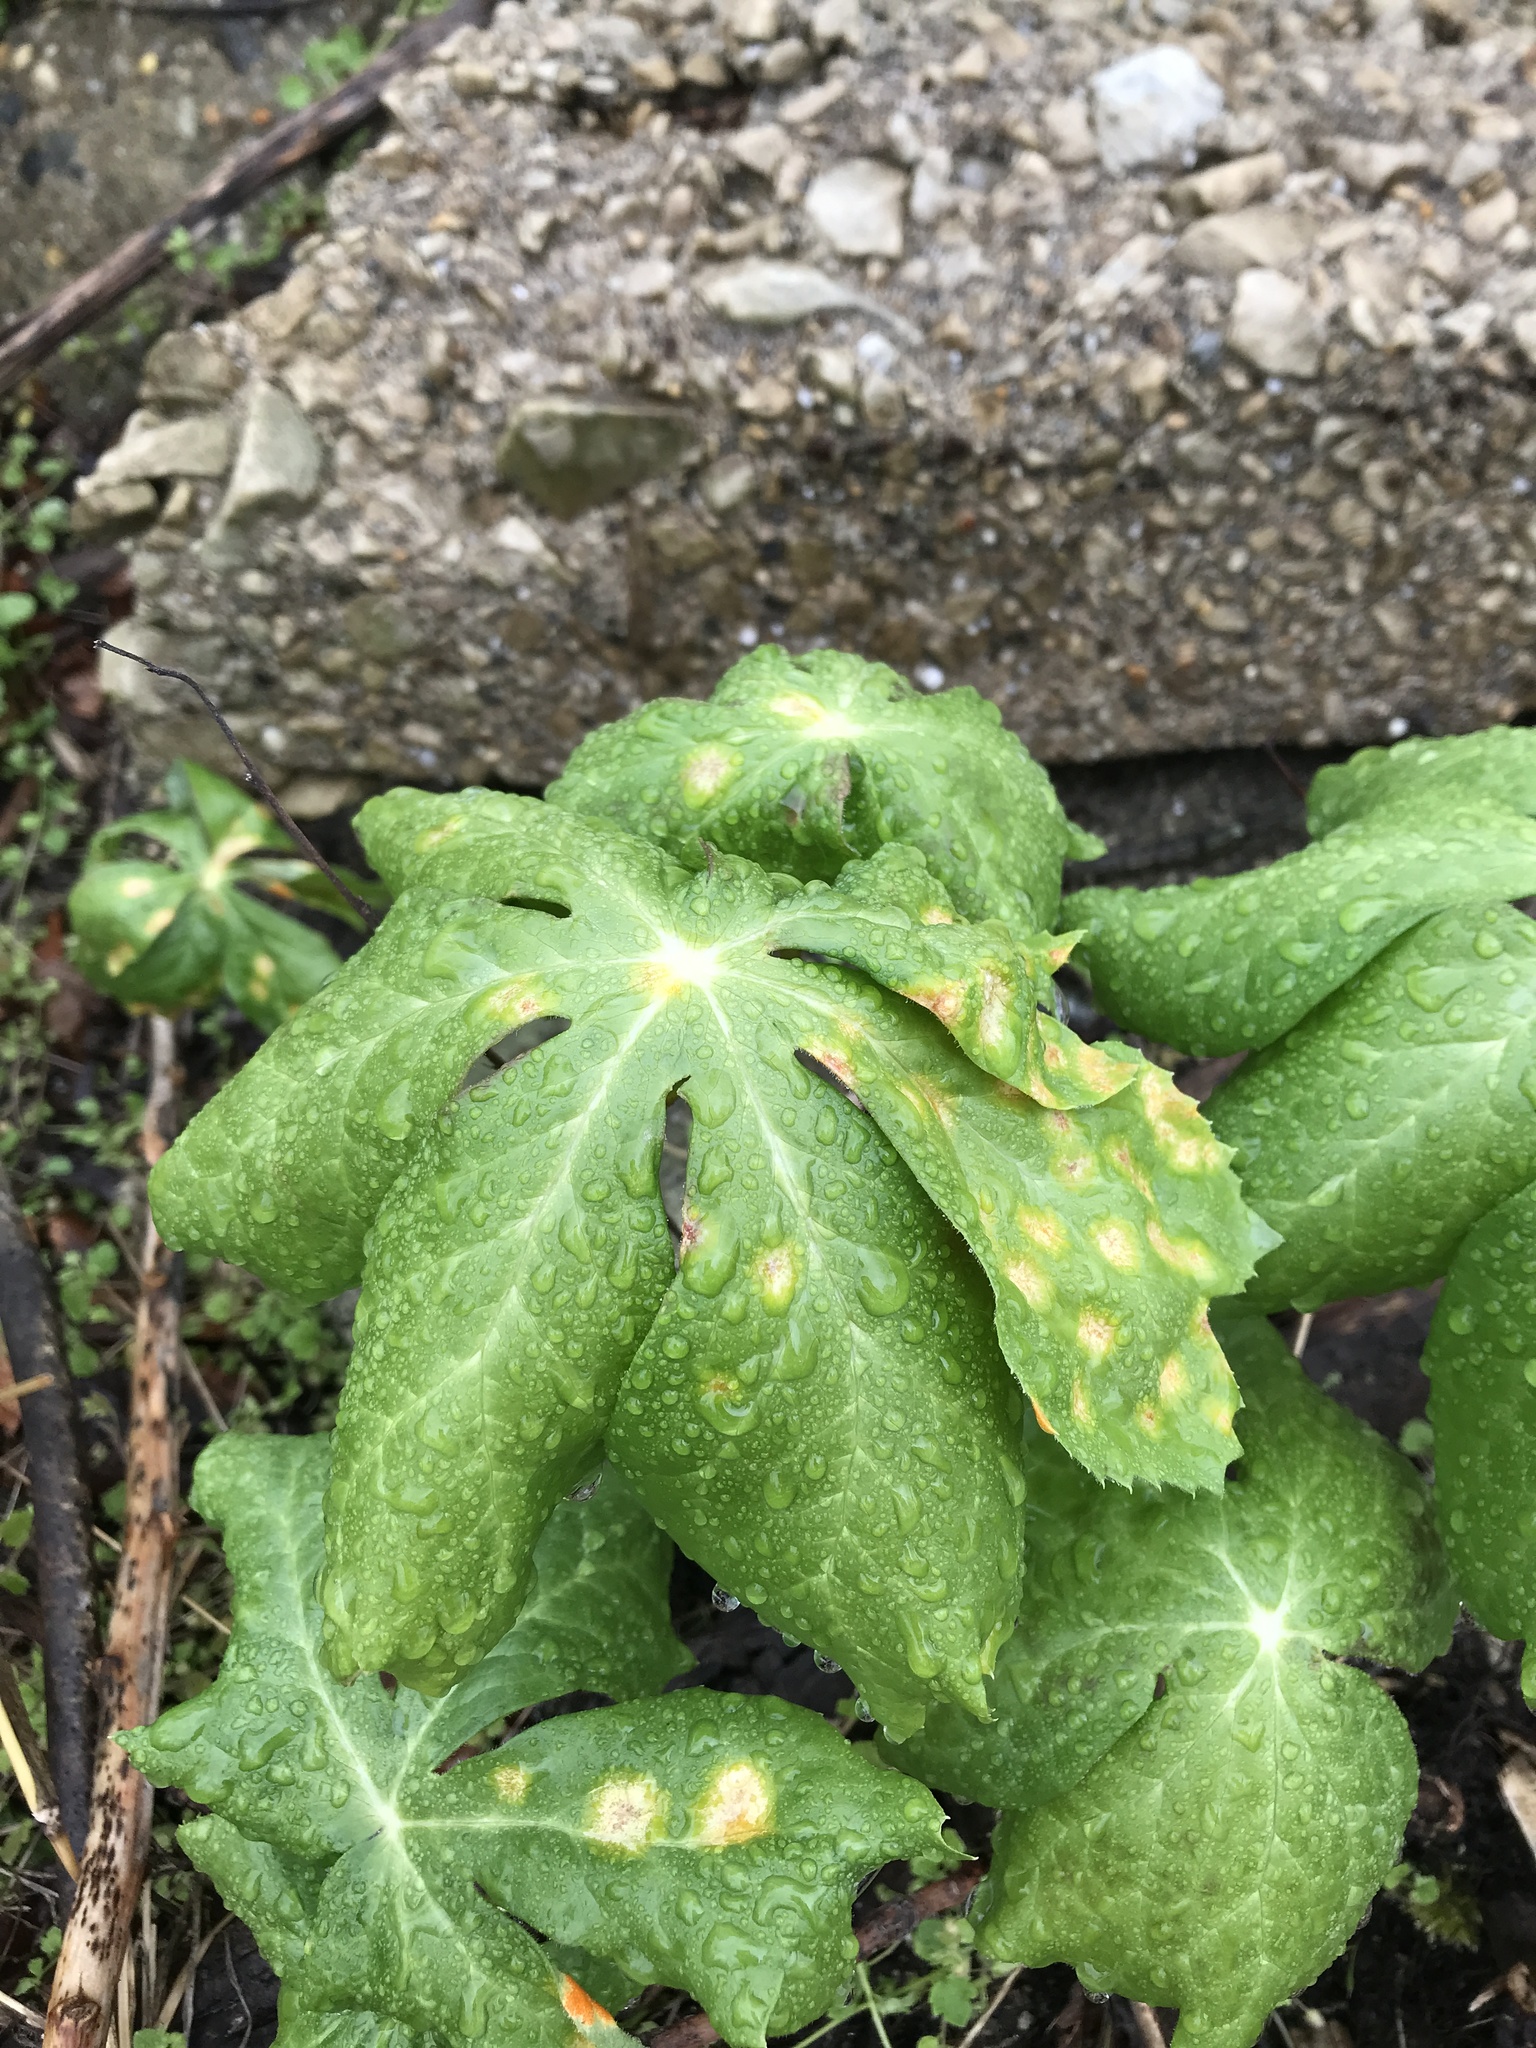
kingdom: Plantae
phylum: Tracheophyta
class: Magnoliopsida
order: Ranunculales
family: Berberidaceae
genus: Podophyllum
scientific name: Podophyllum peltatum
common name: Wild mandrake
